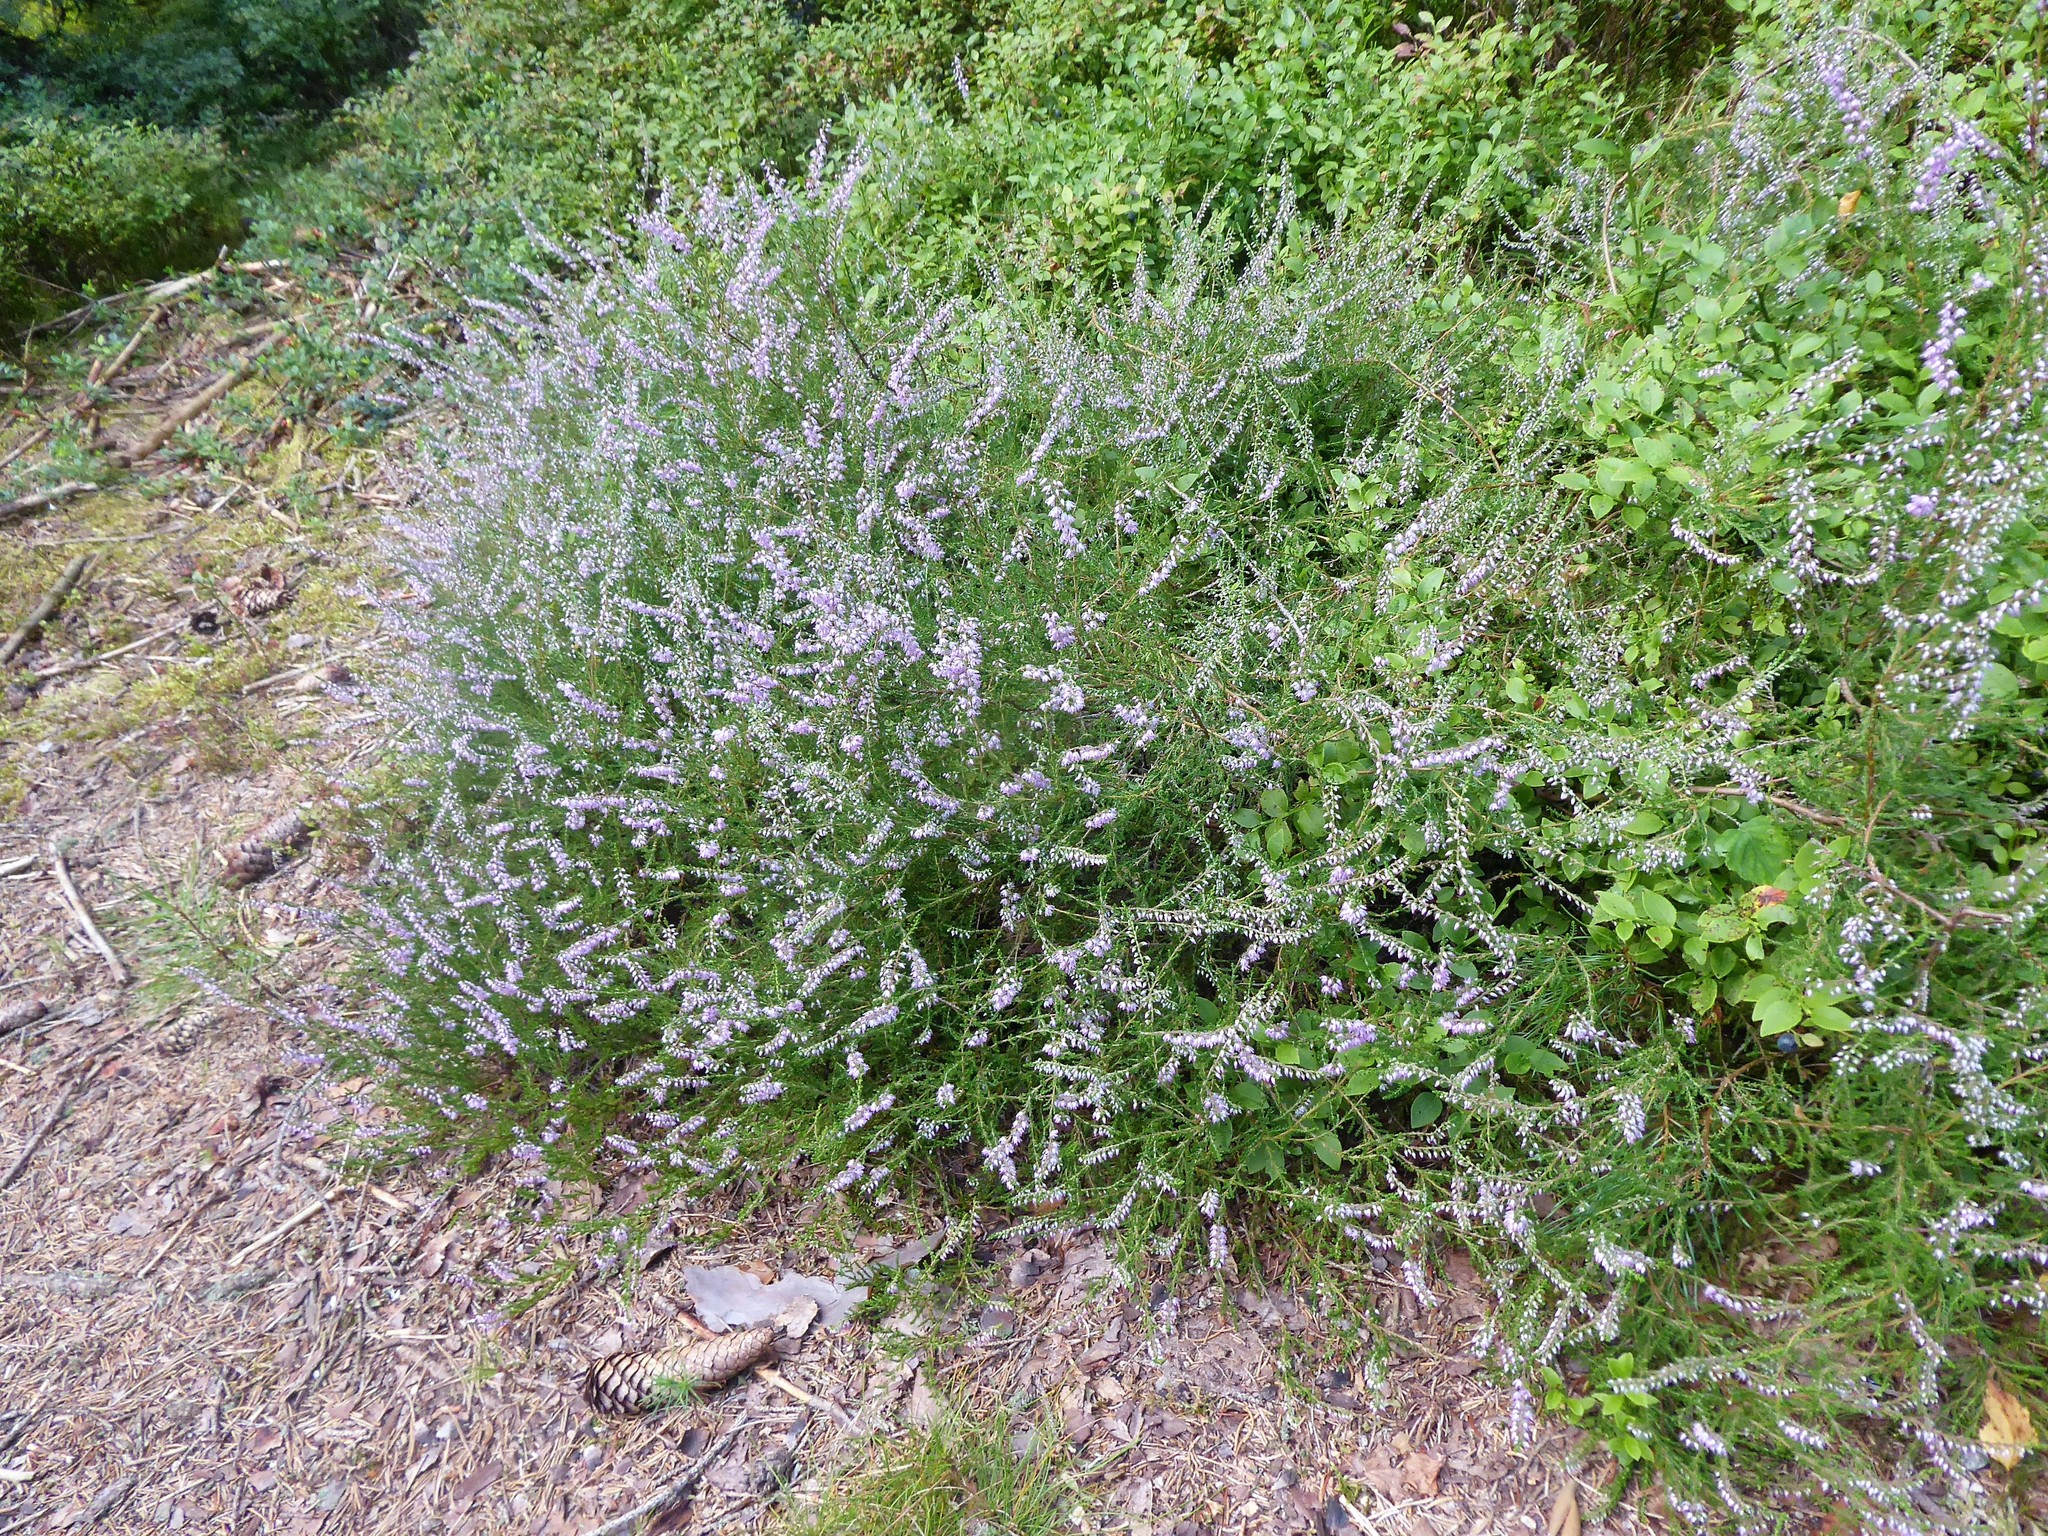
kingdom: Plantae
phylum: Tracheophyta
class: Magnoliopsida
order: Ericales
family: Ericaceae
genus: Calluna
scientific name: Calluna vulgaris
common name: Heather
